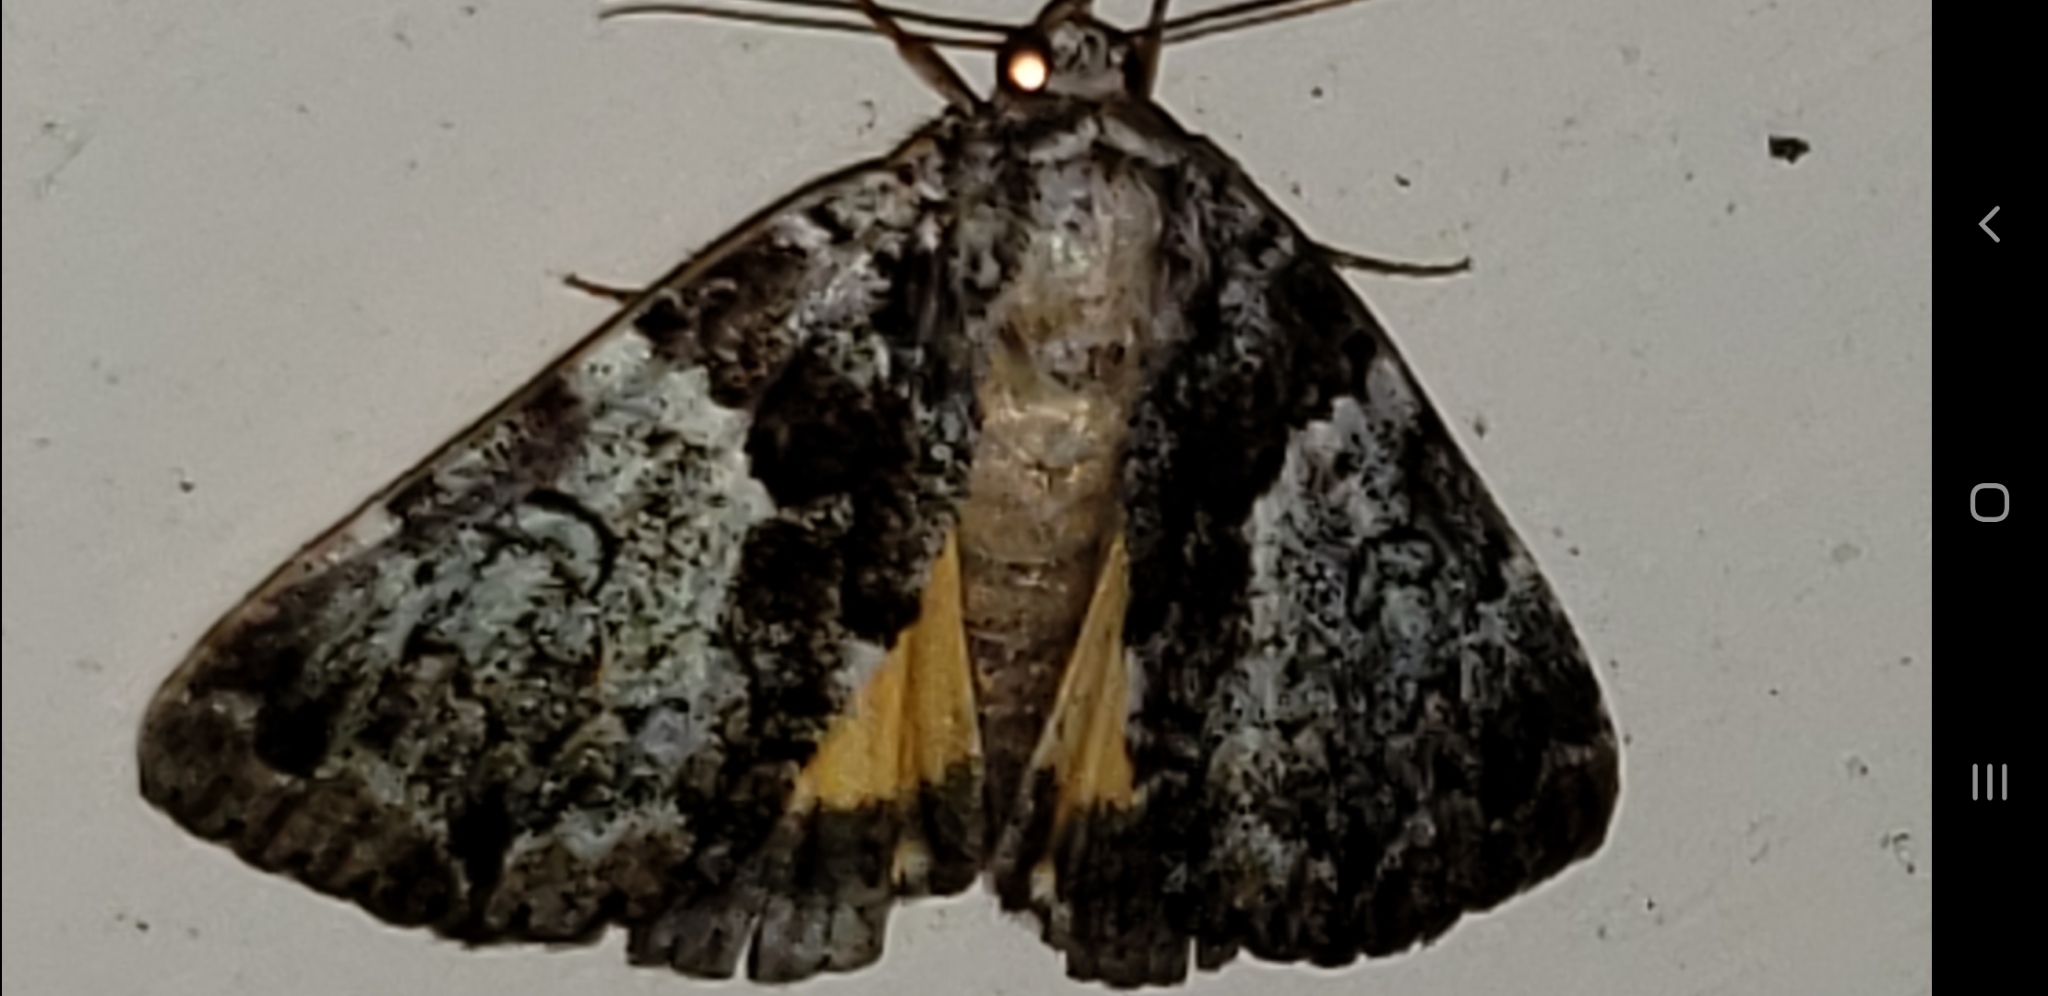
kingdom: Animalia
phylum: Arthropoda
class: Insecta
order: Lepidoptera
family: Erebidae
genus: Allotria
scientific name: Allotria elonympha
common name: False underwing
